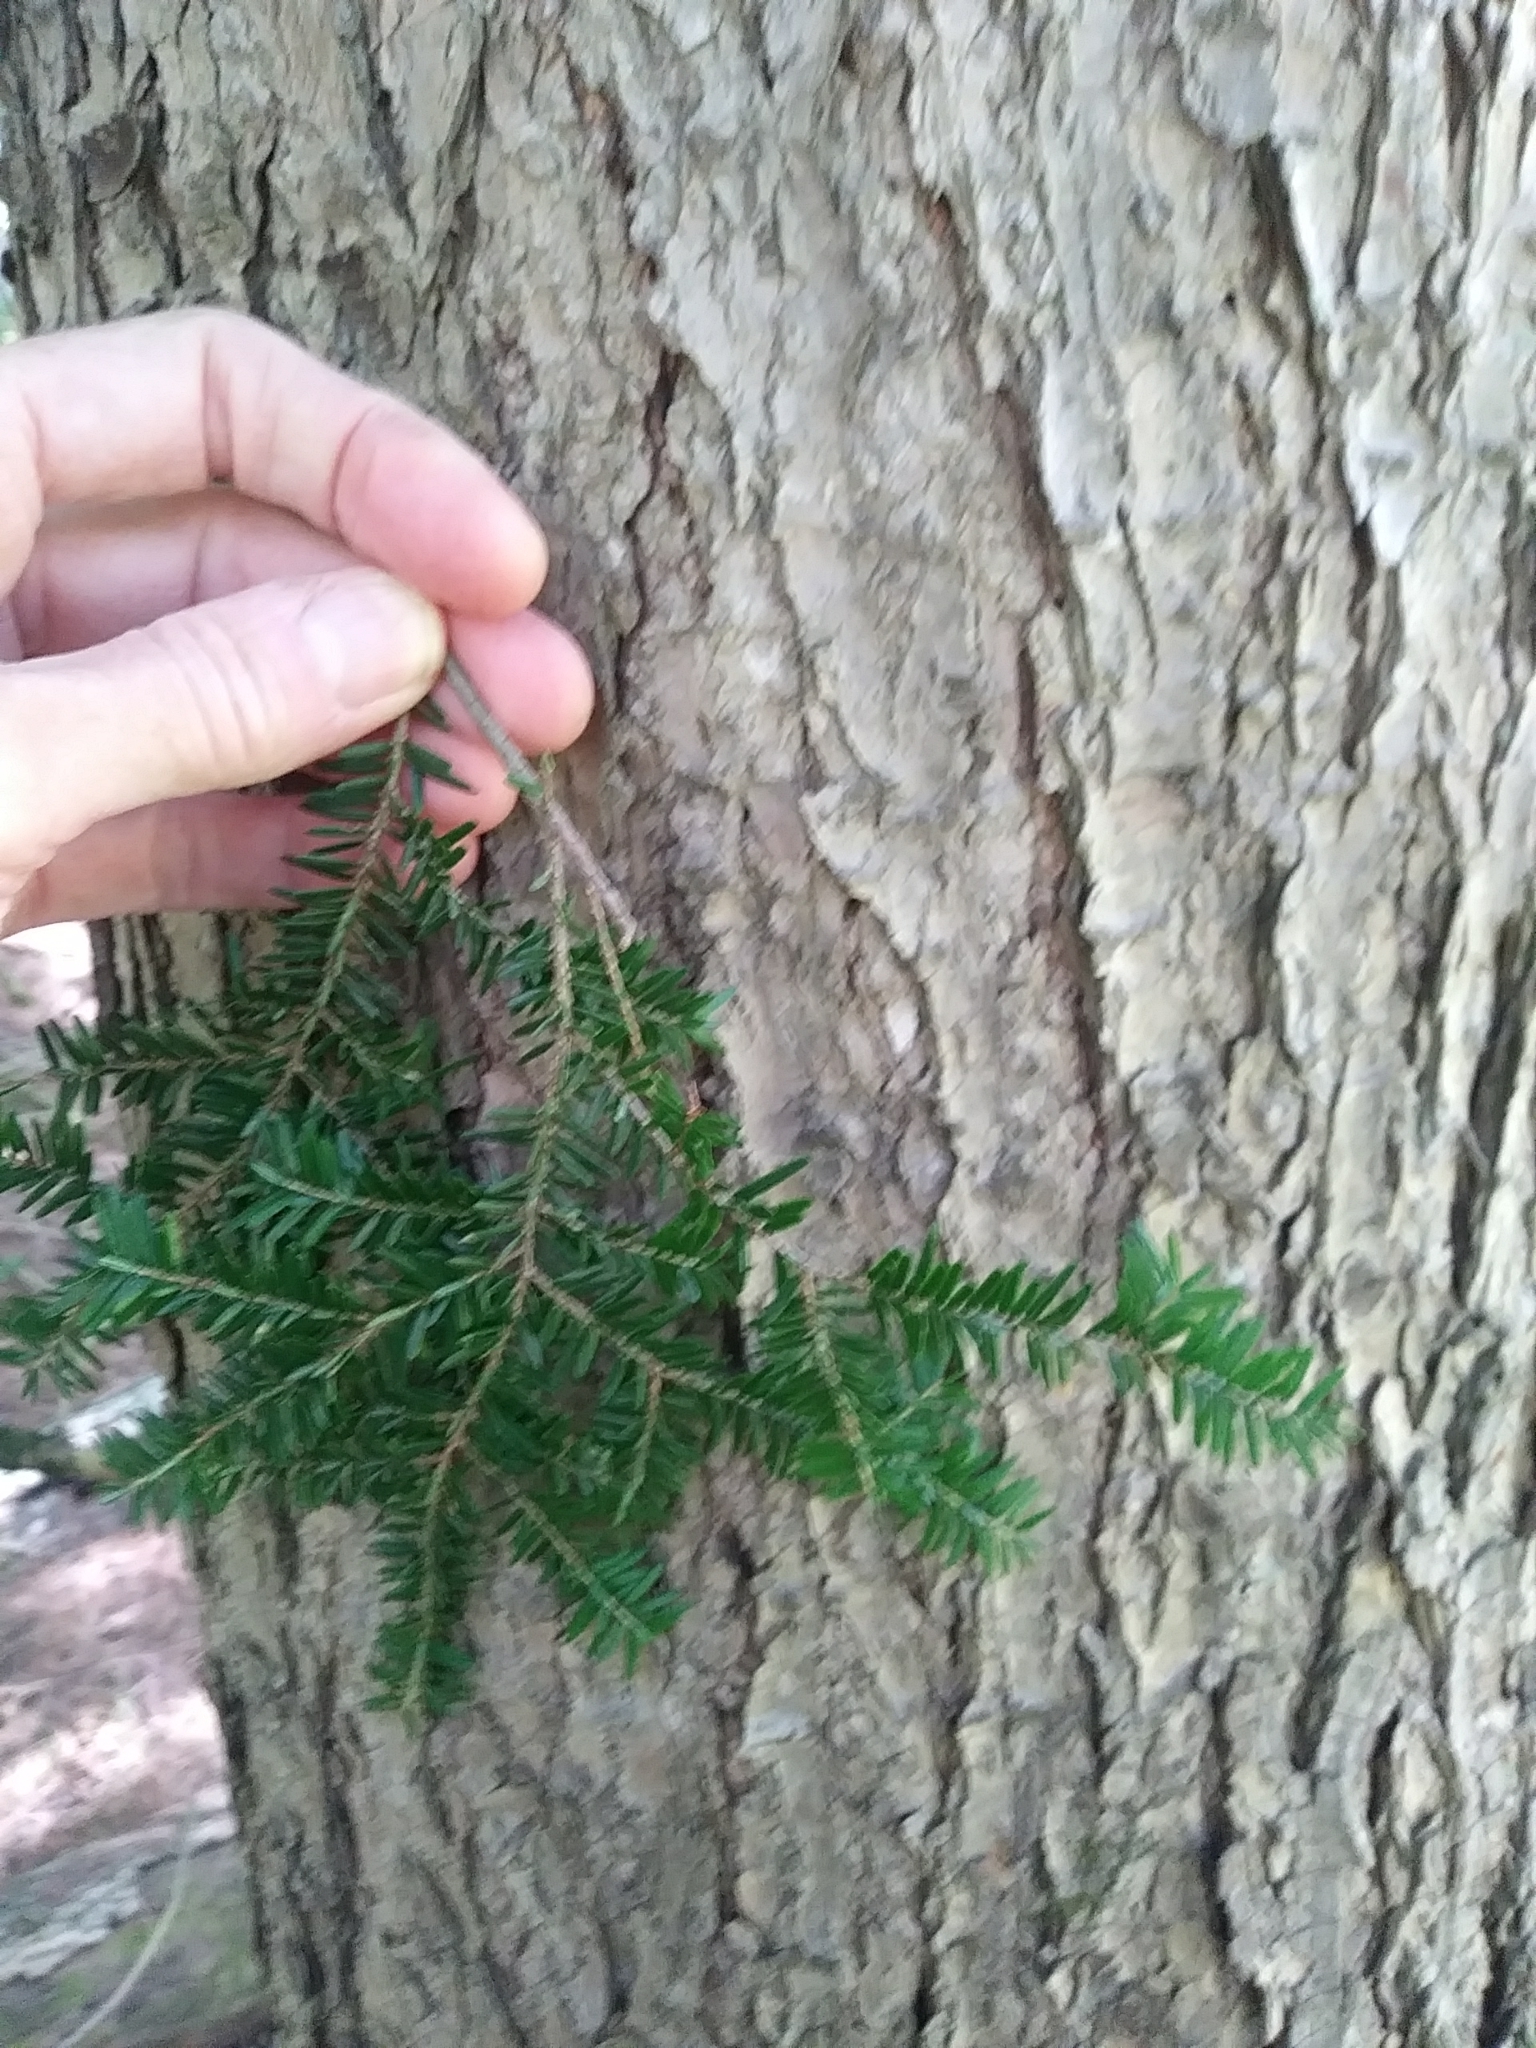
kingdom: Plantae
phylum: Tracheophyta
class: Pinopsida
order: Pinales
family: Pinaceae
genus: Tsuga
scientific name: Tsuga canadensis
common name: Eastern hemlock
